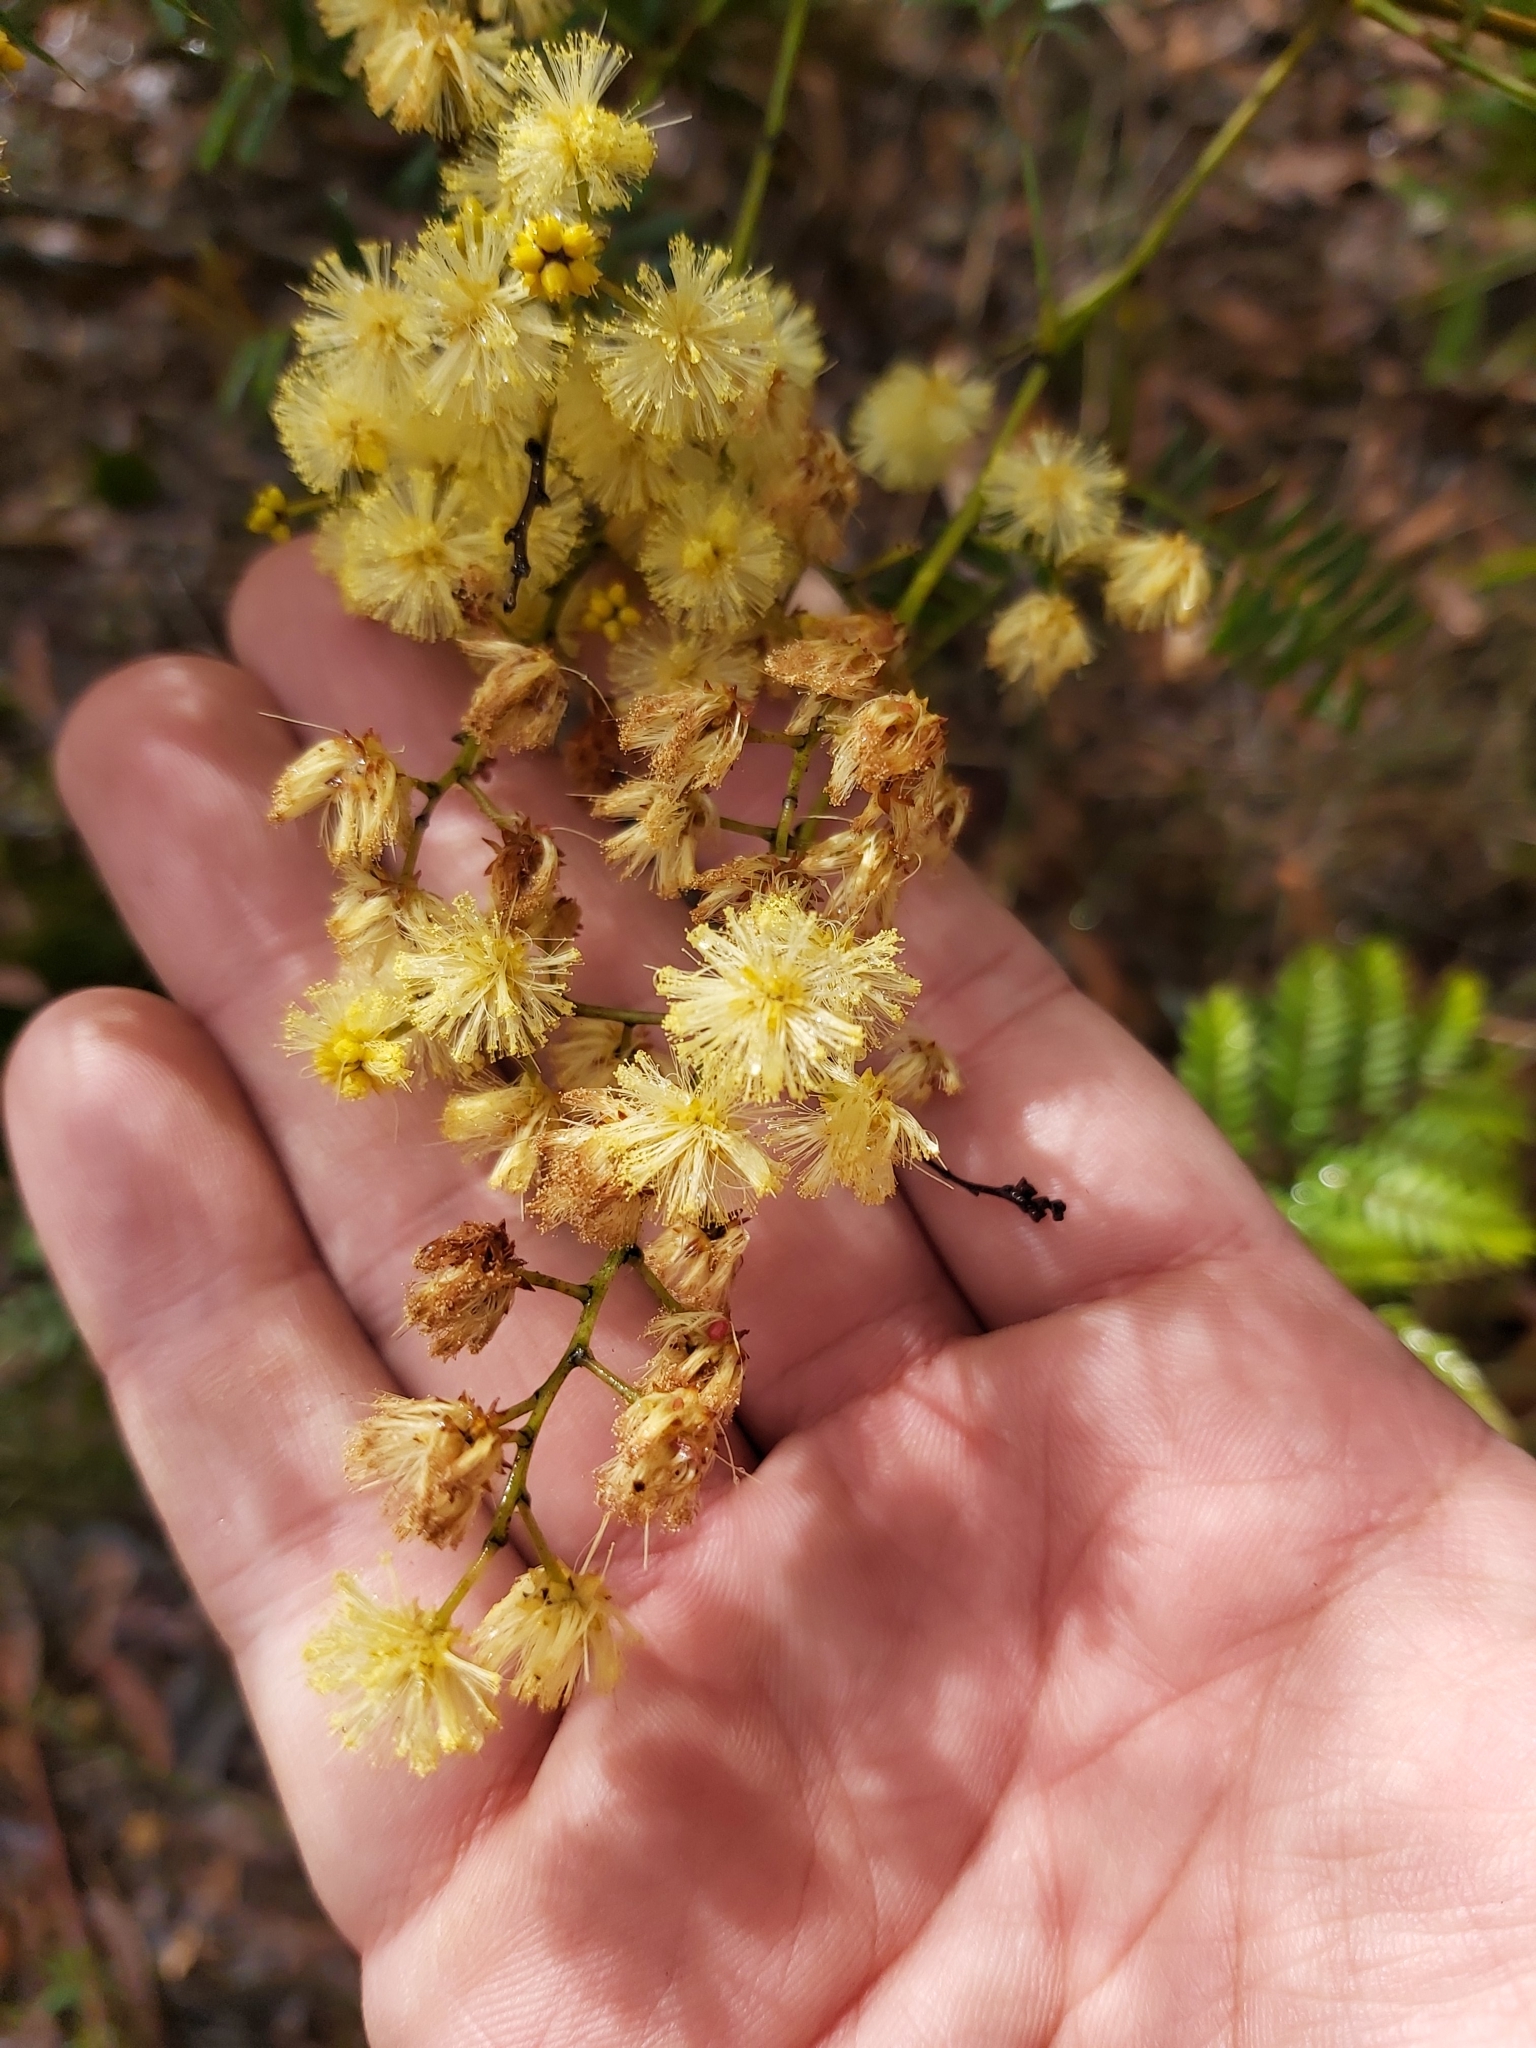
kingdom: Plantae
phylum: Tracheophyta
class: Magnoliopsida
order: Fabales
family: Fabaceae
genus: Acacia
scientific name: Acacia terminalis
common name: Cedar wattle
